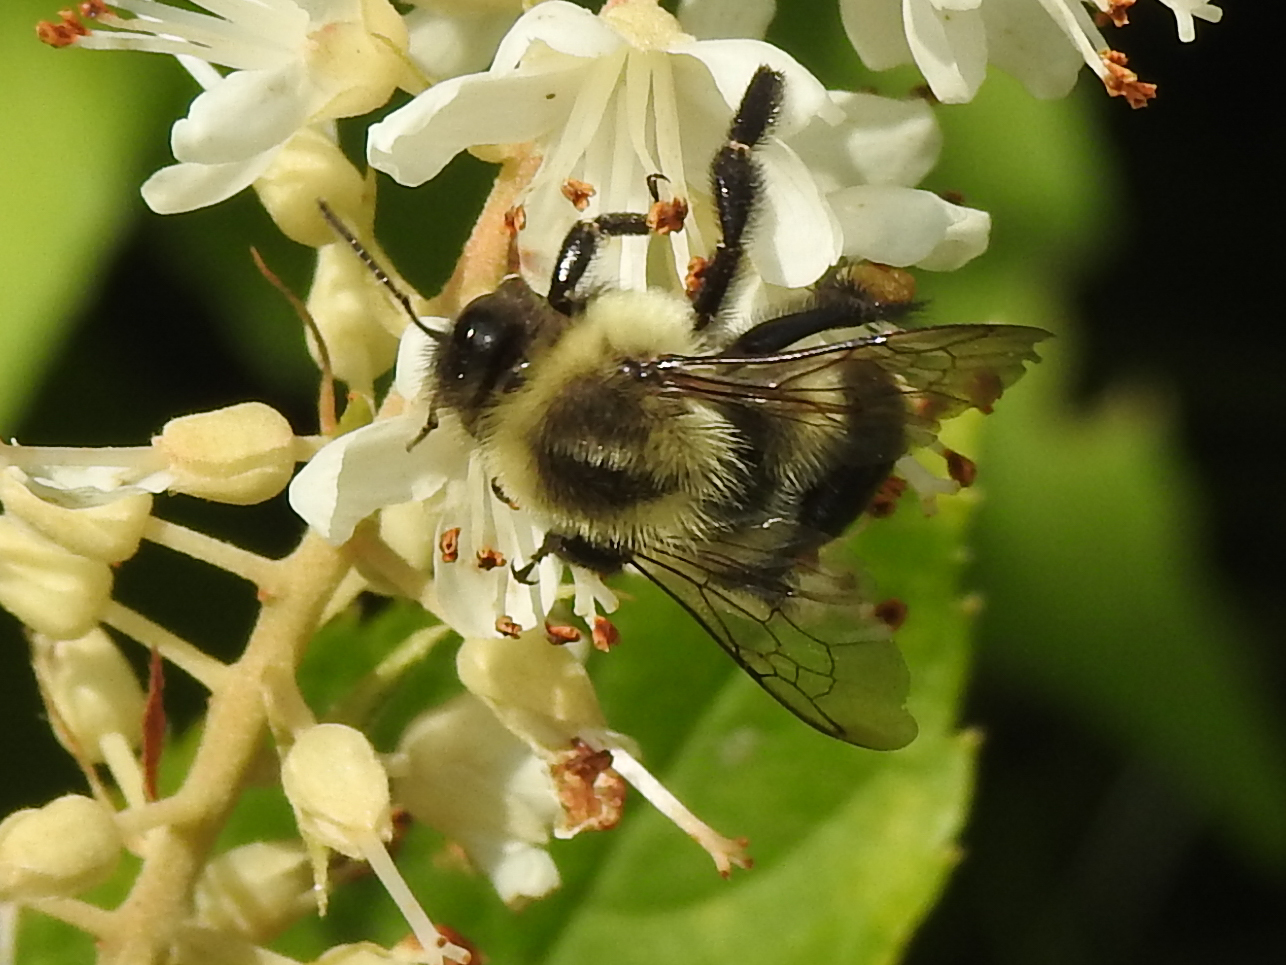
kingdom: Animalia
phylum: Arthropoda
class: Insecta
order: Hymenoptera
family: Apidae
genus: Bombus
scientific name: Bombus impatiens
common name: Common eastern bumble bee
